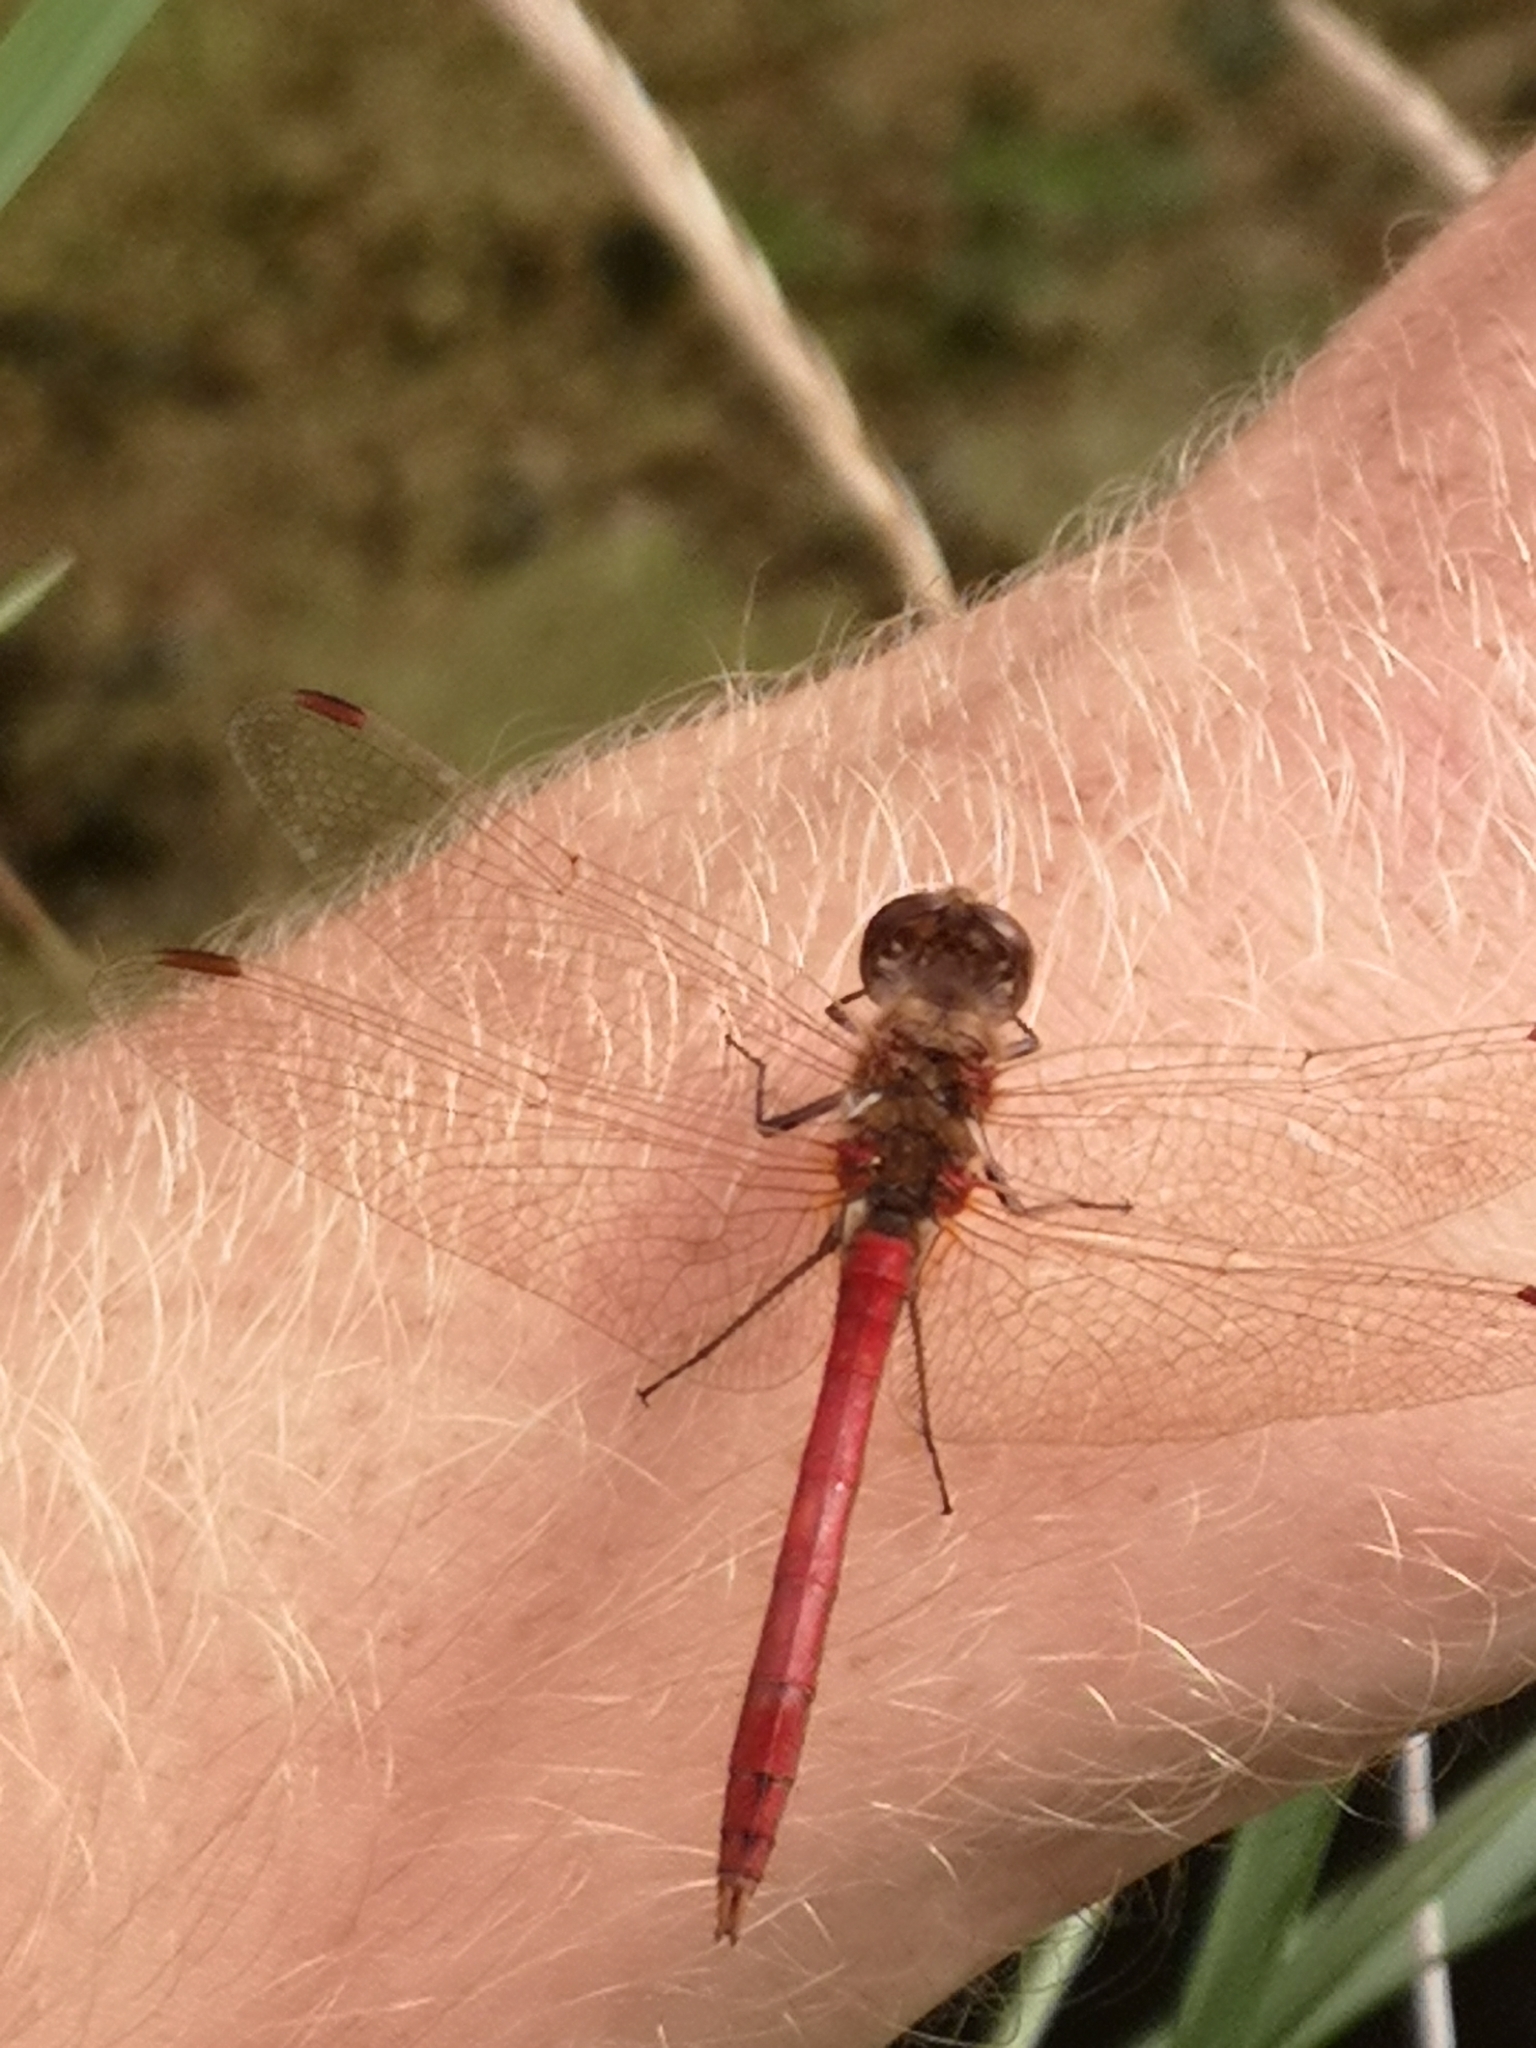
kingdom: Animalia
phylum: Arthropoda
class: Insecta
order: Odonata
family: Libellulidae
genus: Sympetrum
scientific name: Sympetrum vulgatum
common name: Vagrant darter
